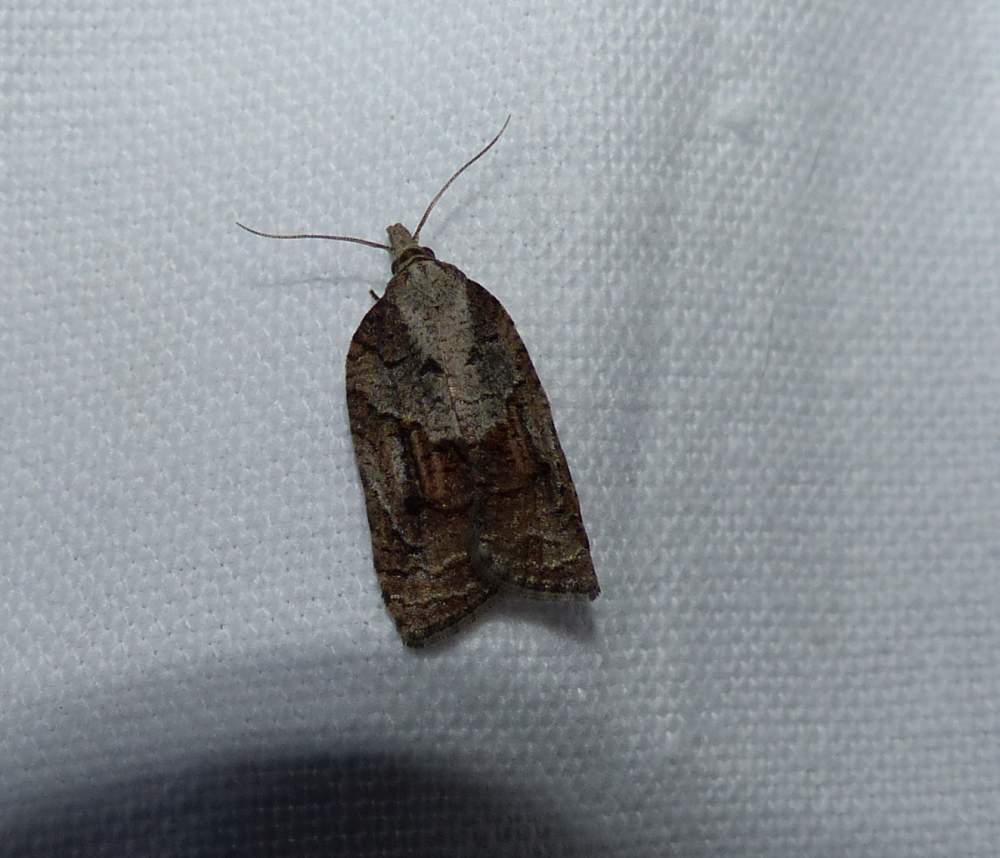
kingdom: Animalia
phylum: Arthropoda
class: Insecta
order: Lepidoptera
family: Tortricidae
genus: Platynota
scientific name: Platynota idaeusalis
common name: Tufted apple bud moth
